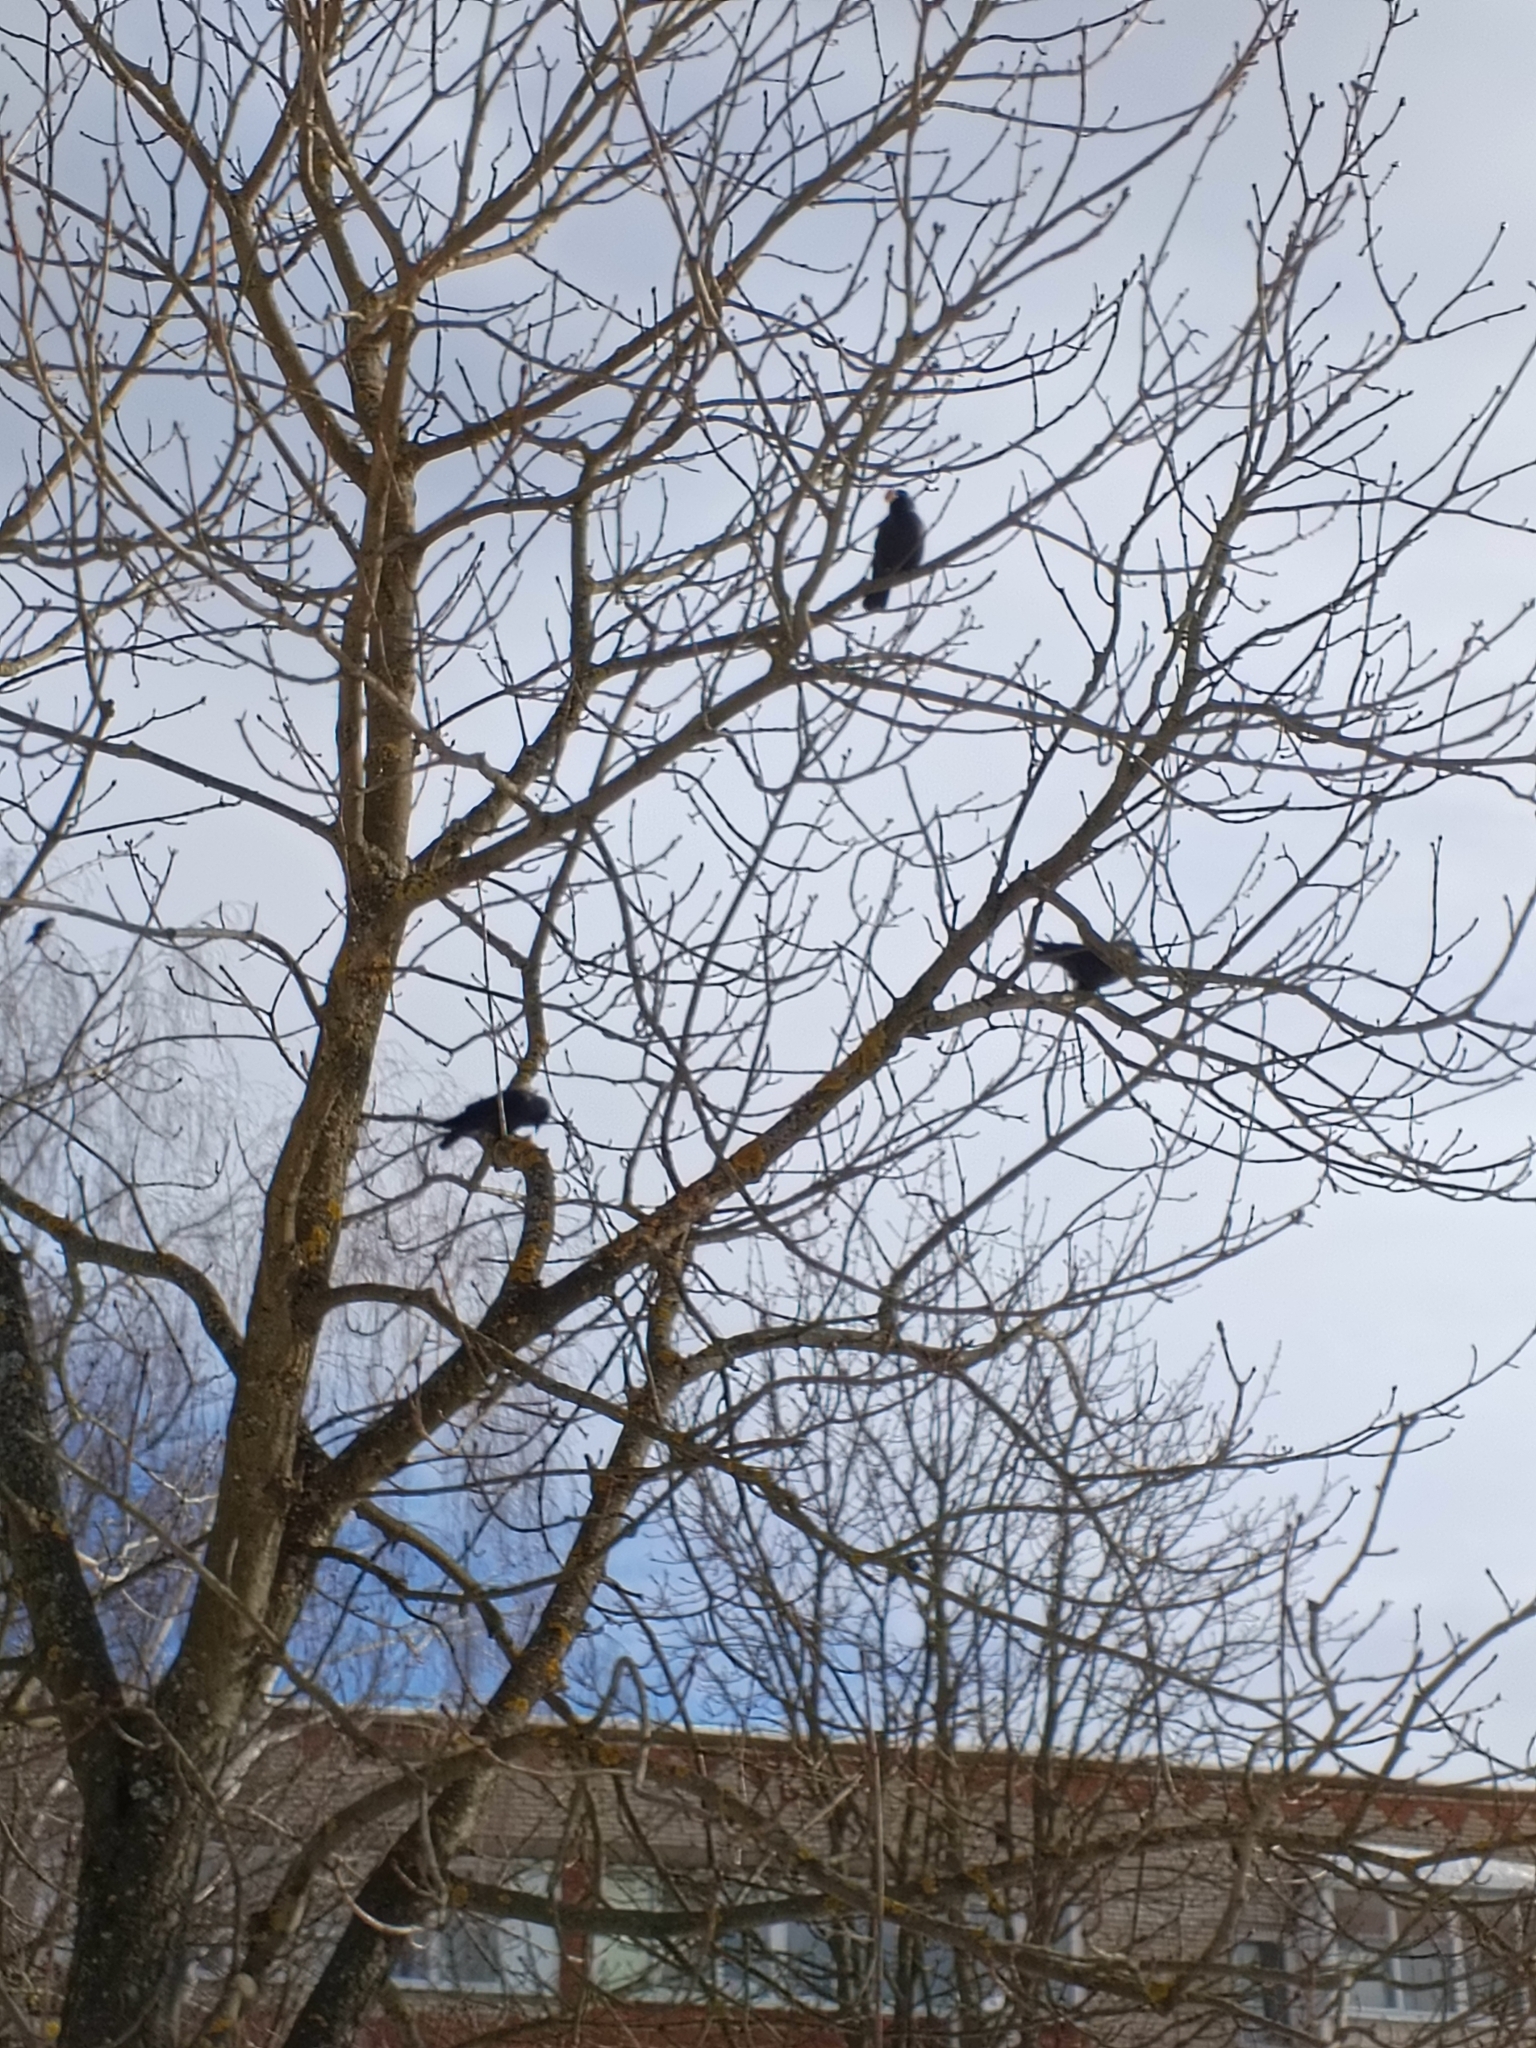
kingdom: Animalia
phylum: Chordata
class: Aves
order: Passeriformes
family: Corvidae
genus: Coloeus
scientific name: Coloeus monedula
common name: Western jackdaw
